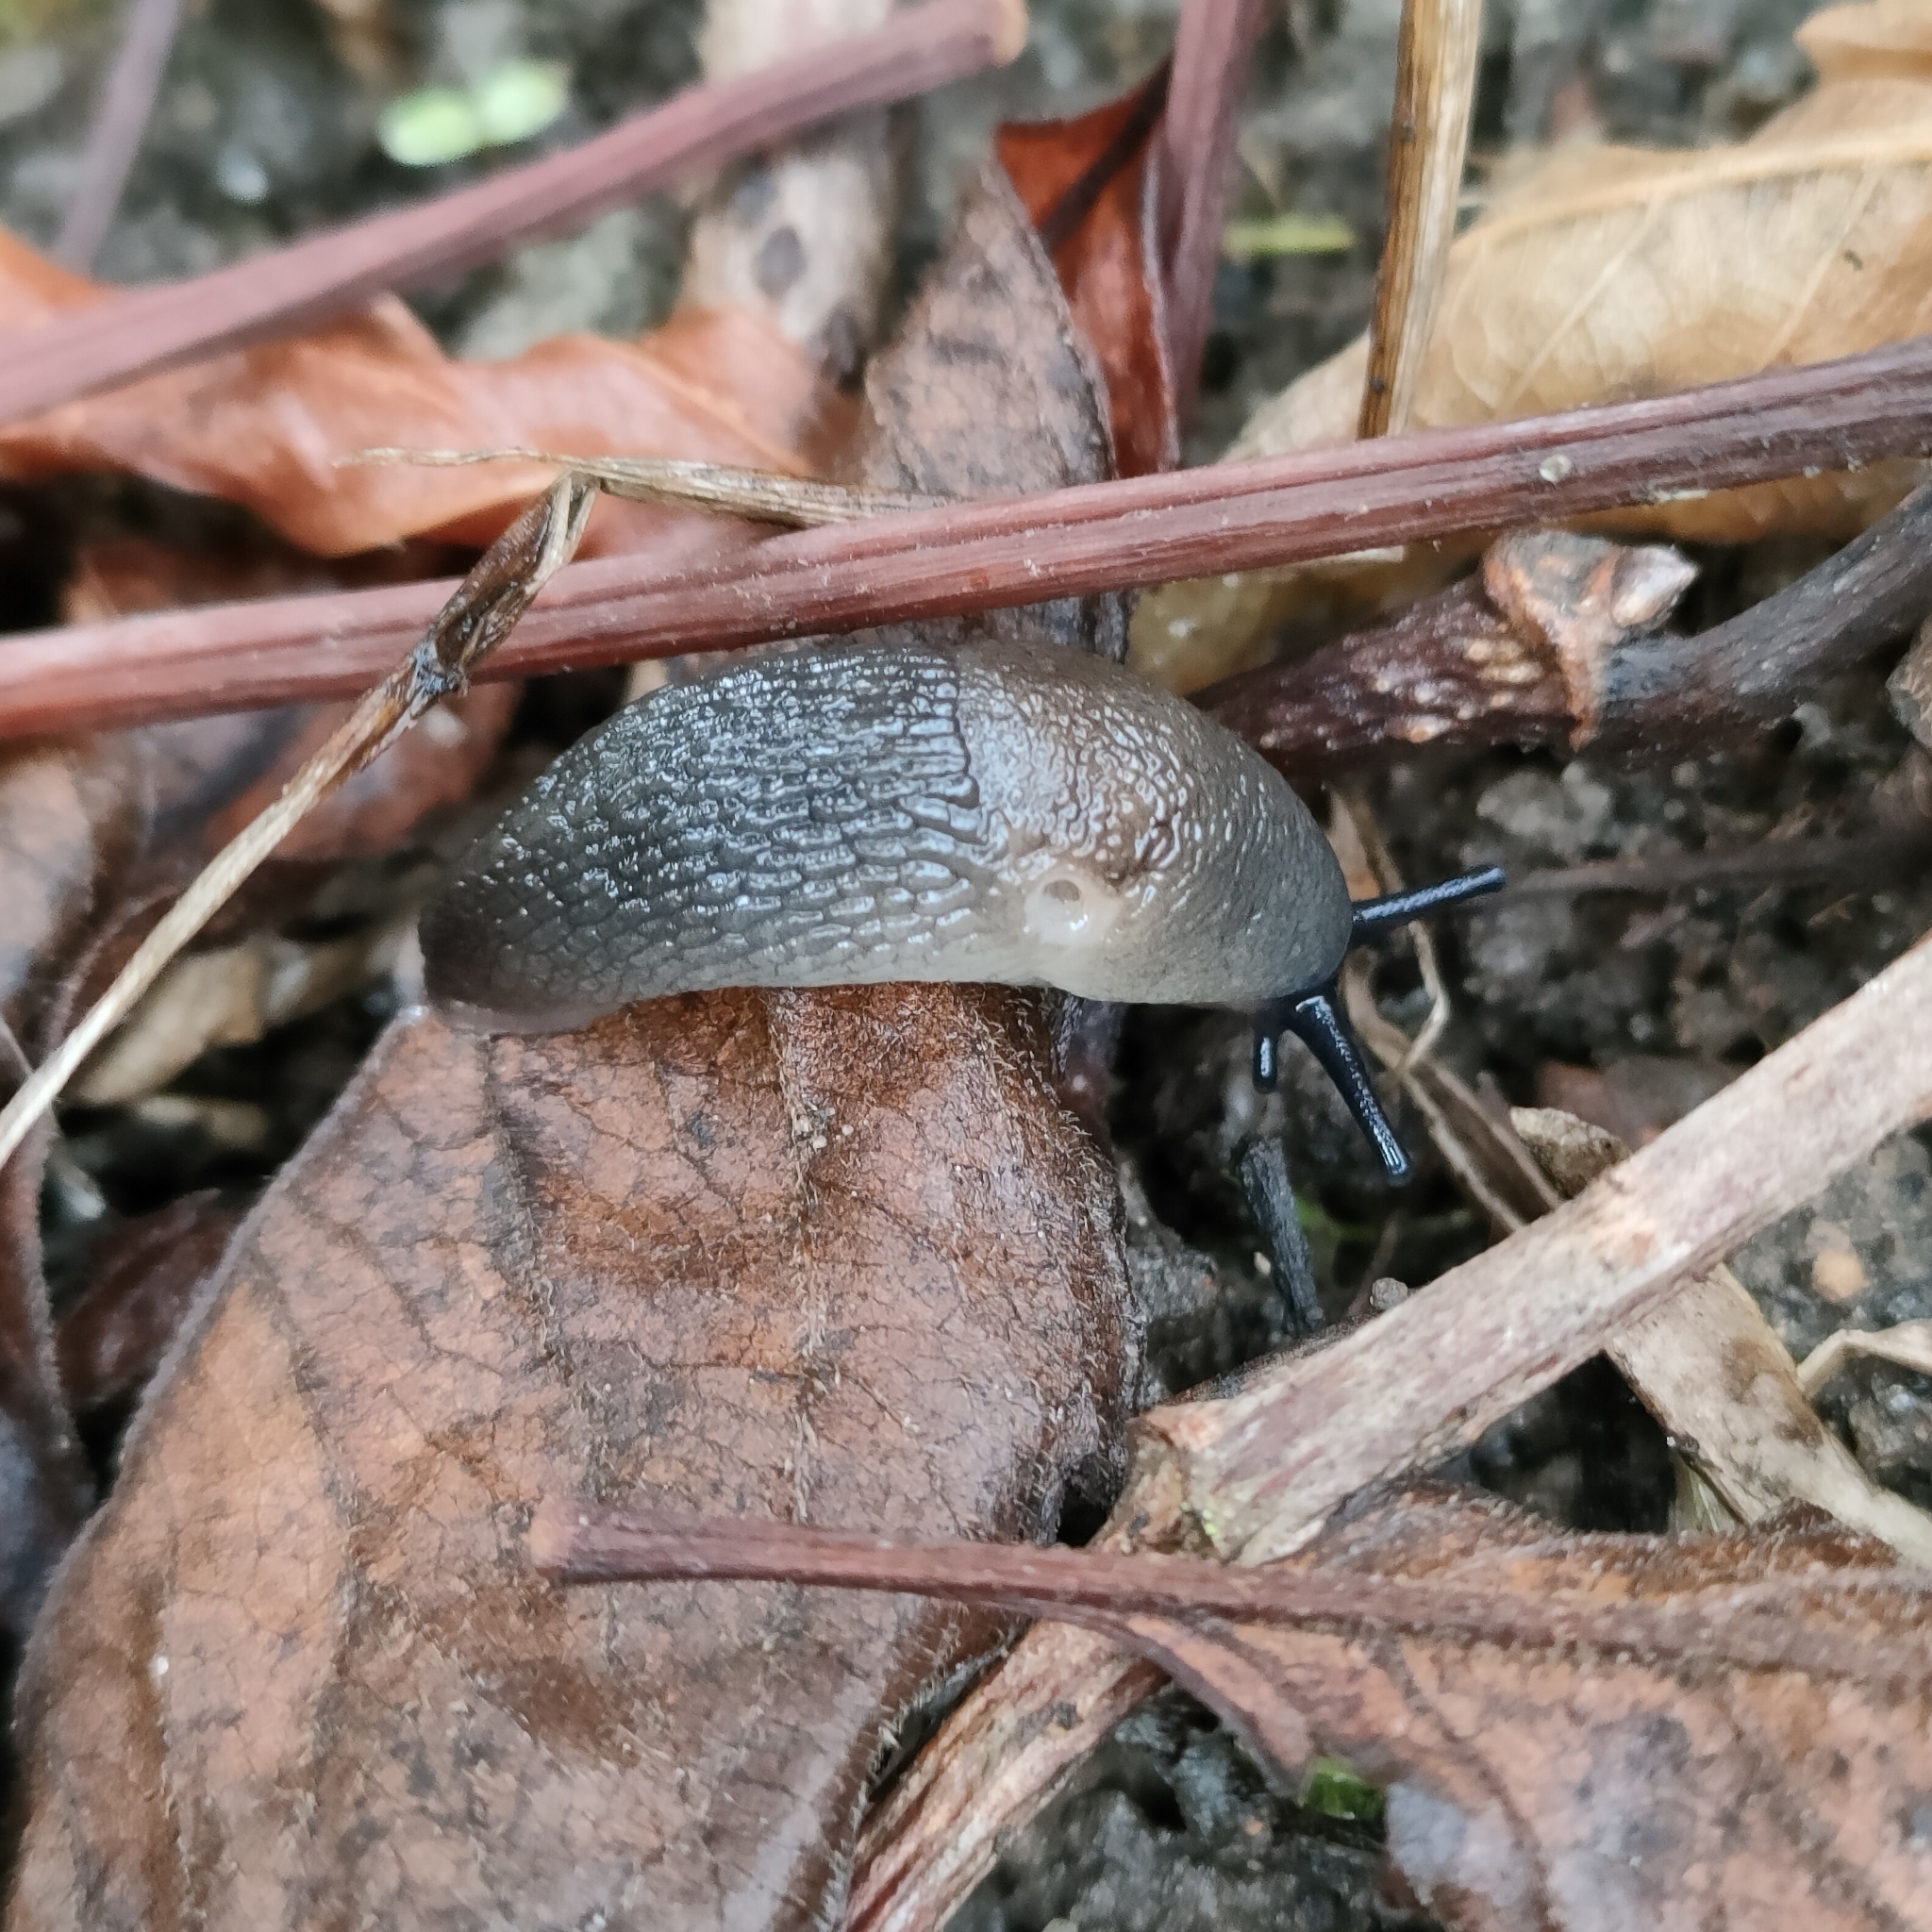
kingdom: Animalia
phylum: Mollusca
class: Gastropoda
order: Stylommatophora
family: Agriolimacidae
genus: Krynickillus
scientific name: Krynickillus melanocephalus
